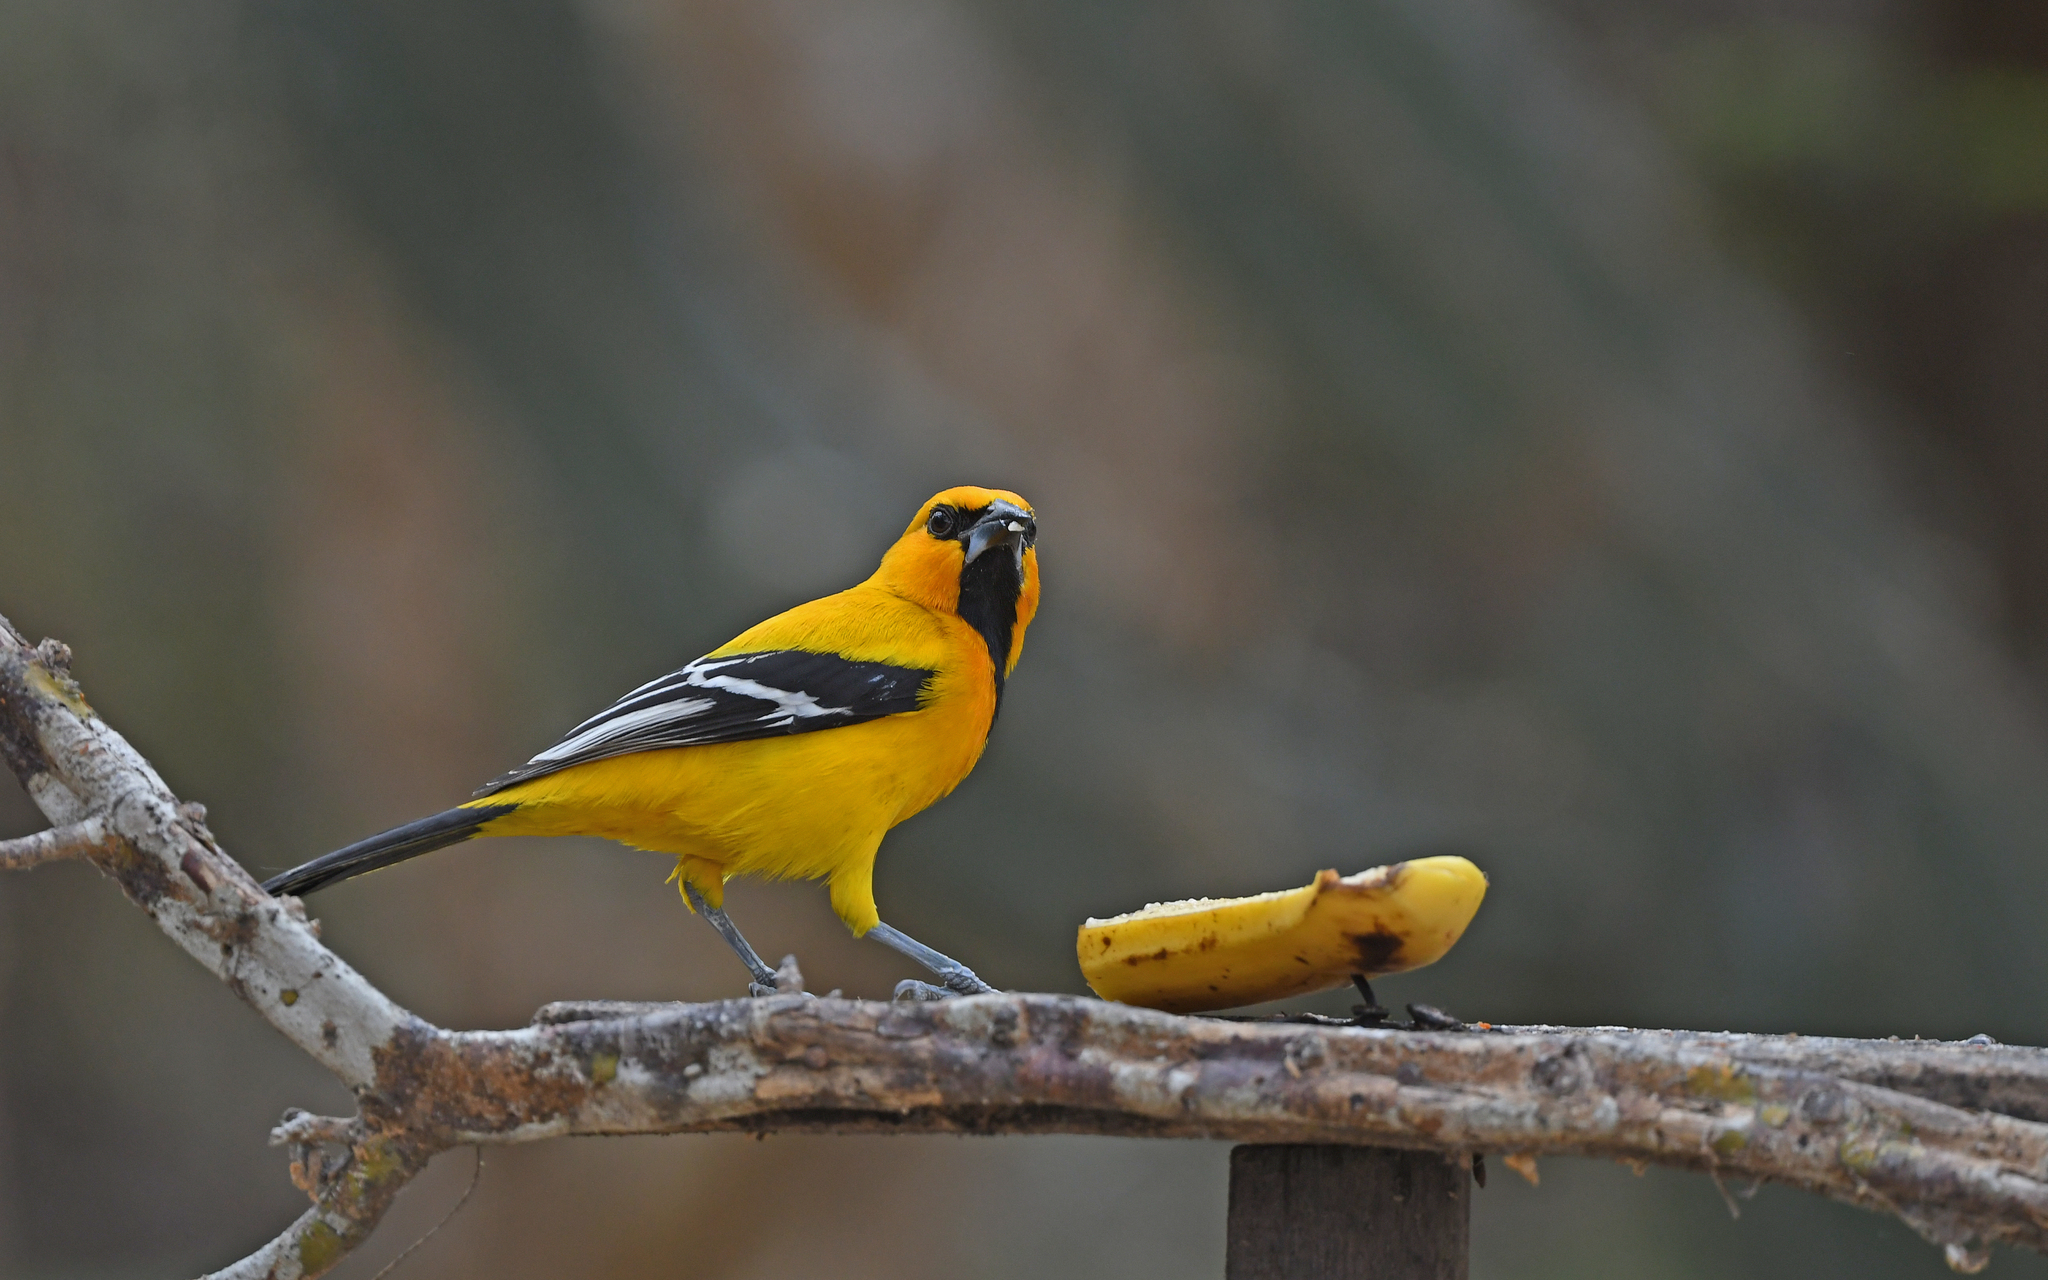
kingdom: Animalia
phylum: Chordata
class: Aves
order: Passeriformes
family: Icteridae
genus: Icterus
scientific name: Icterus nigrogularis
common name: Yellow oriole
